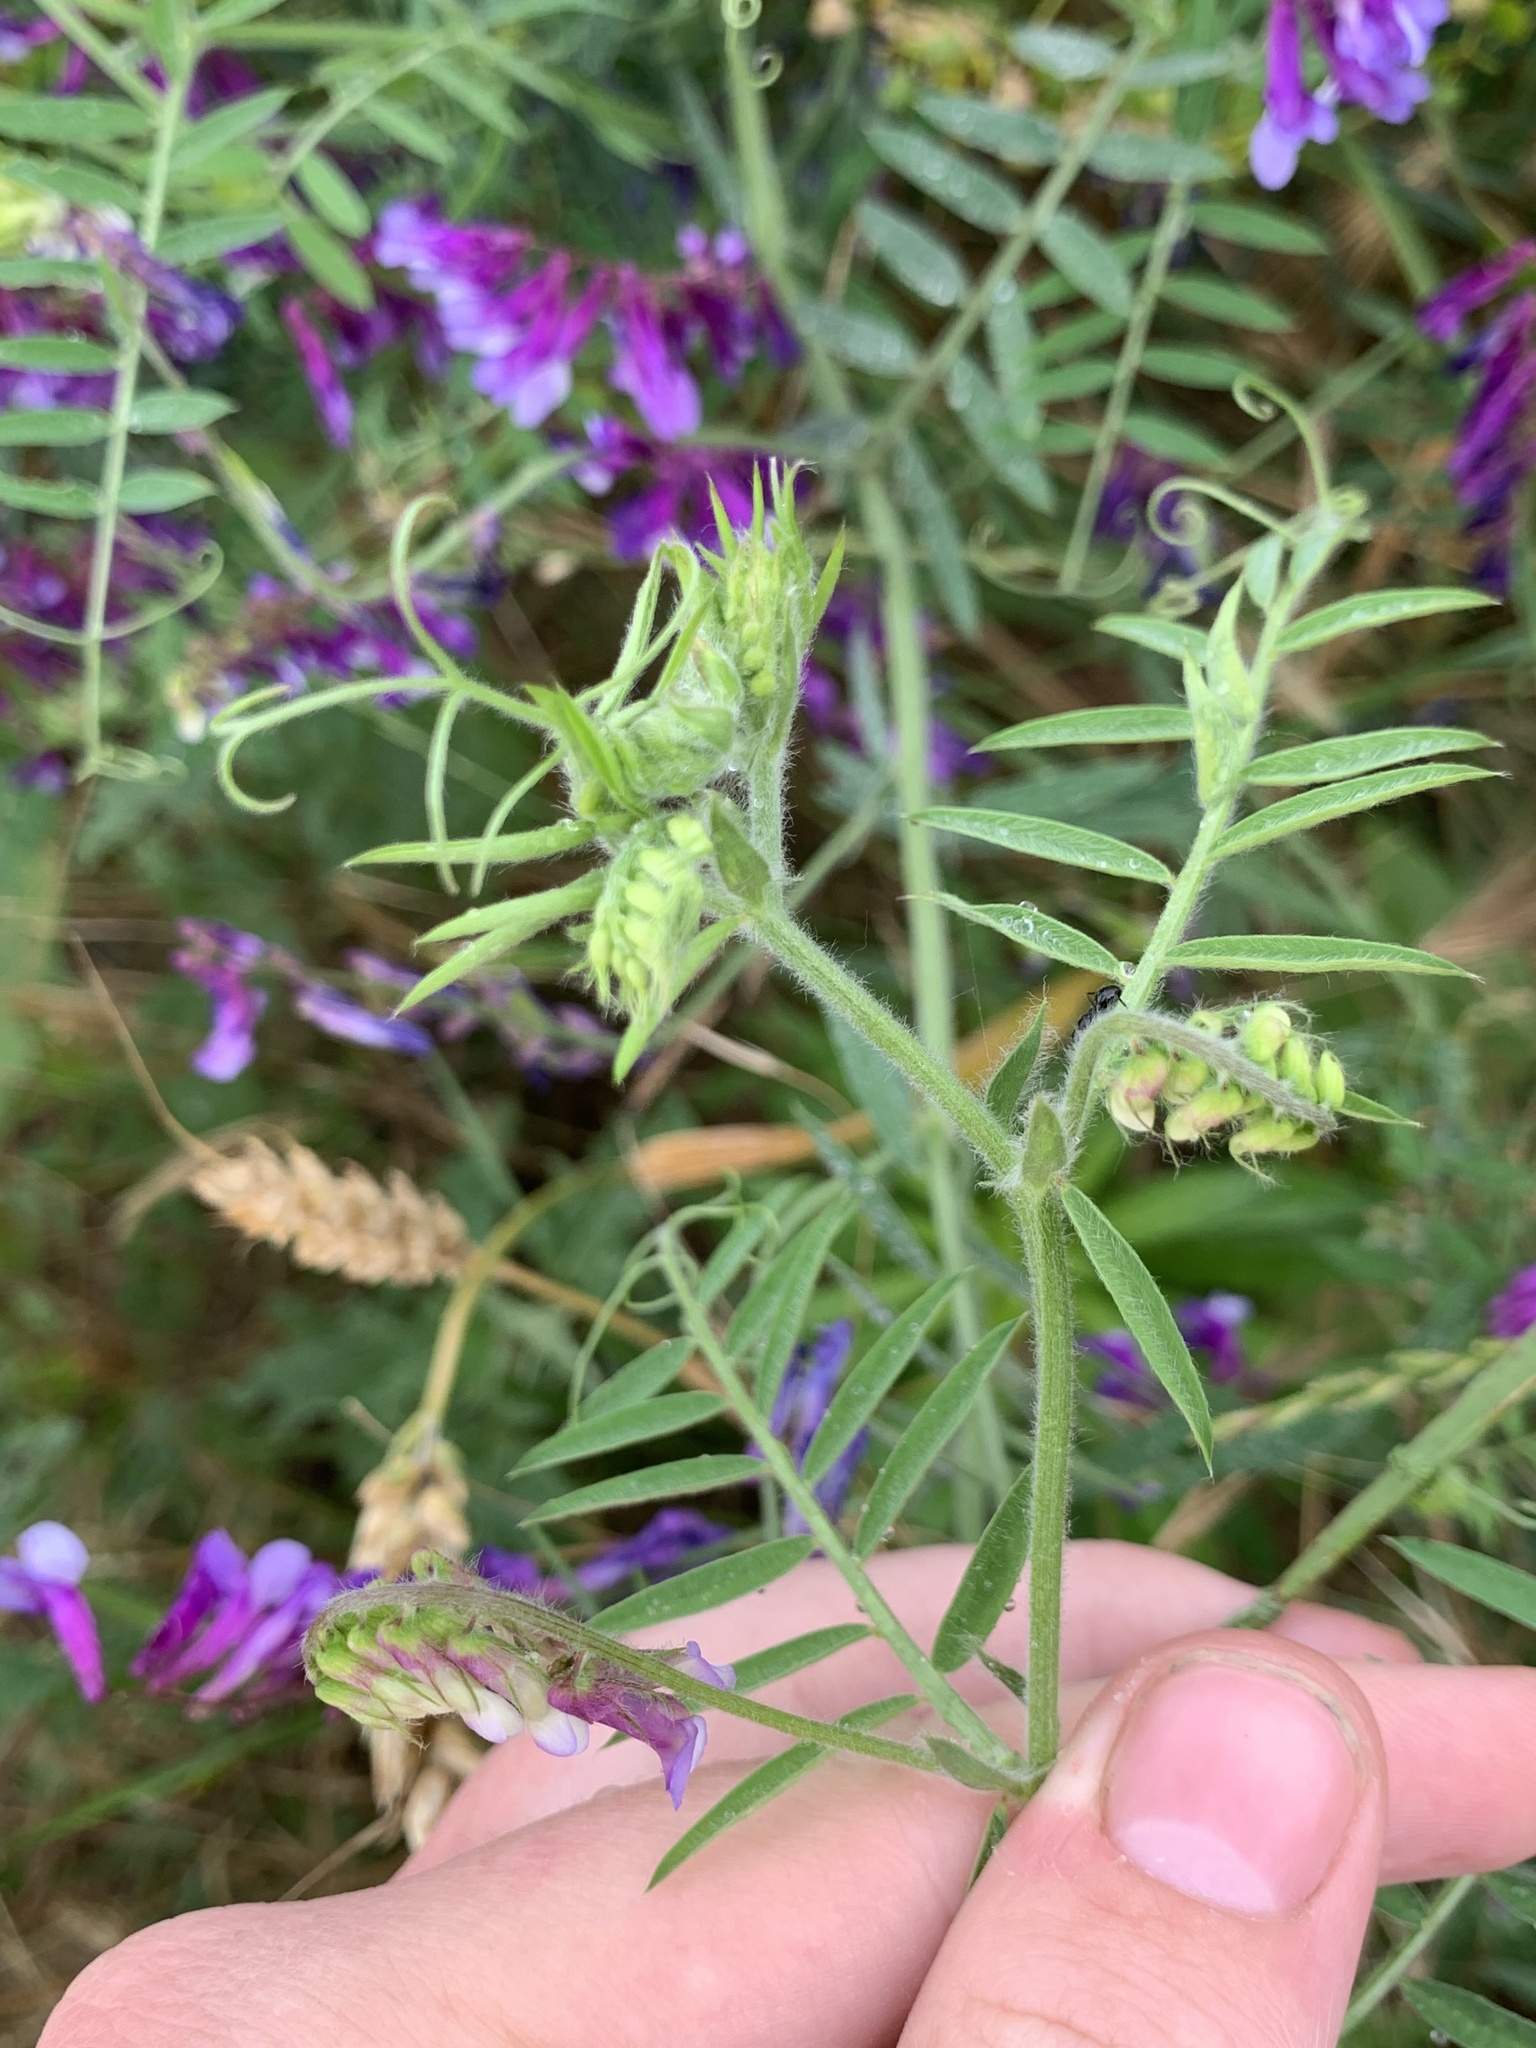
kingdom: Plantae
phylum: Tracheophyta
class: Magnoliopsida
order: Fabales
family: Fabaceae
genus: Vicia
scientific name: Vicia villosa
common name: Fodder vetch
